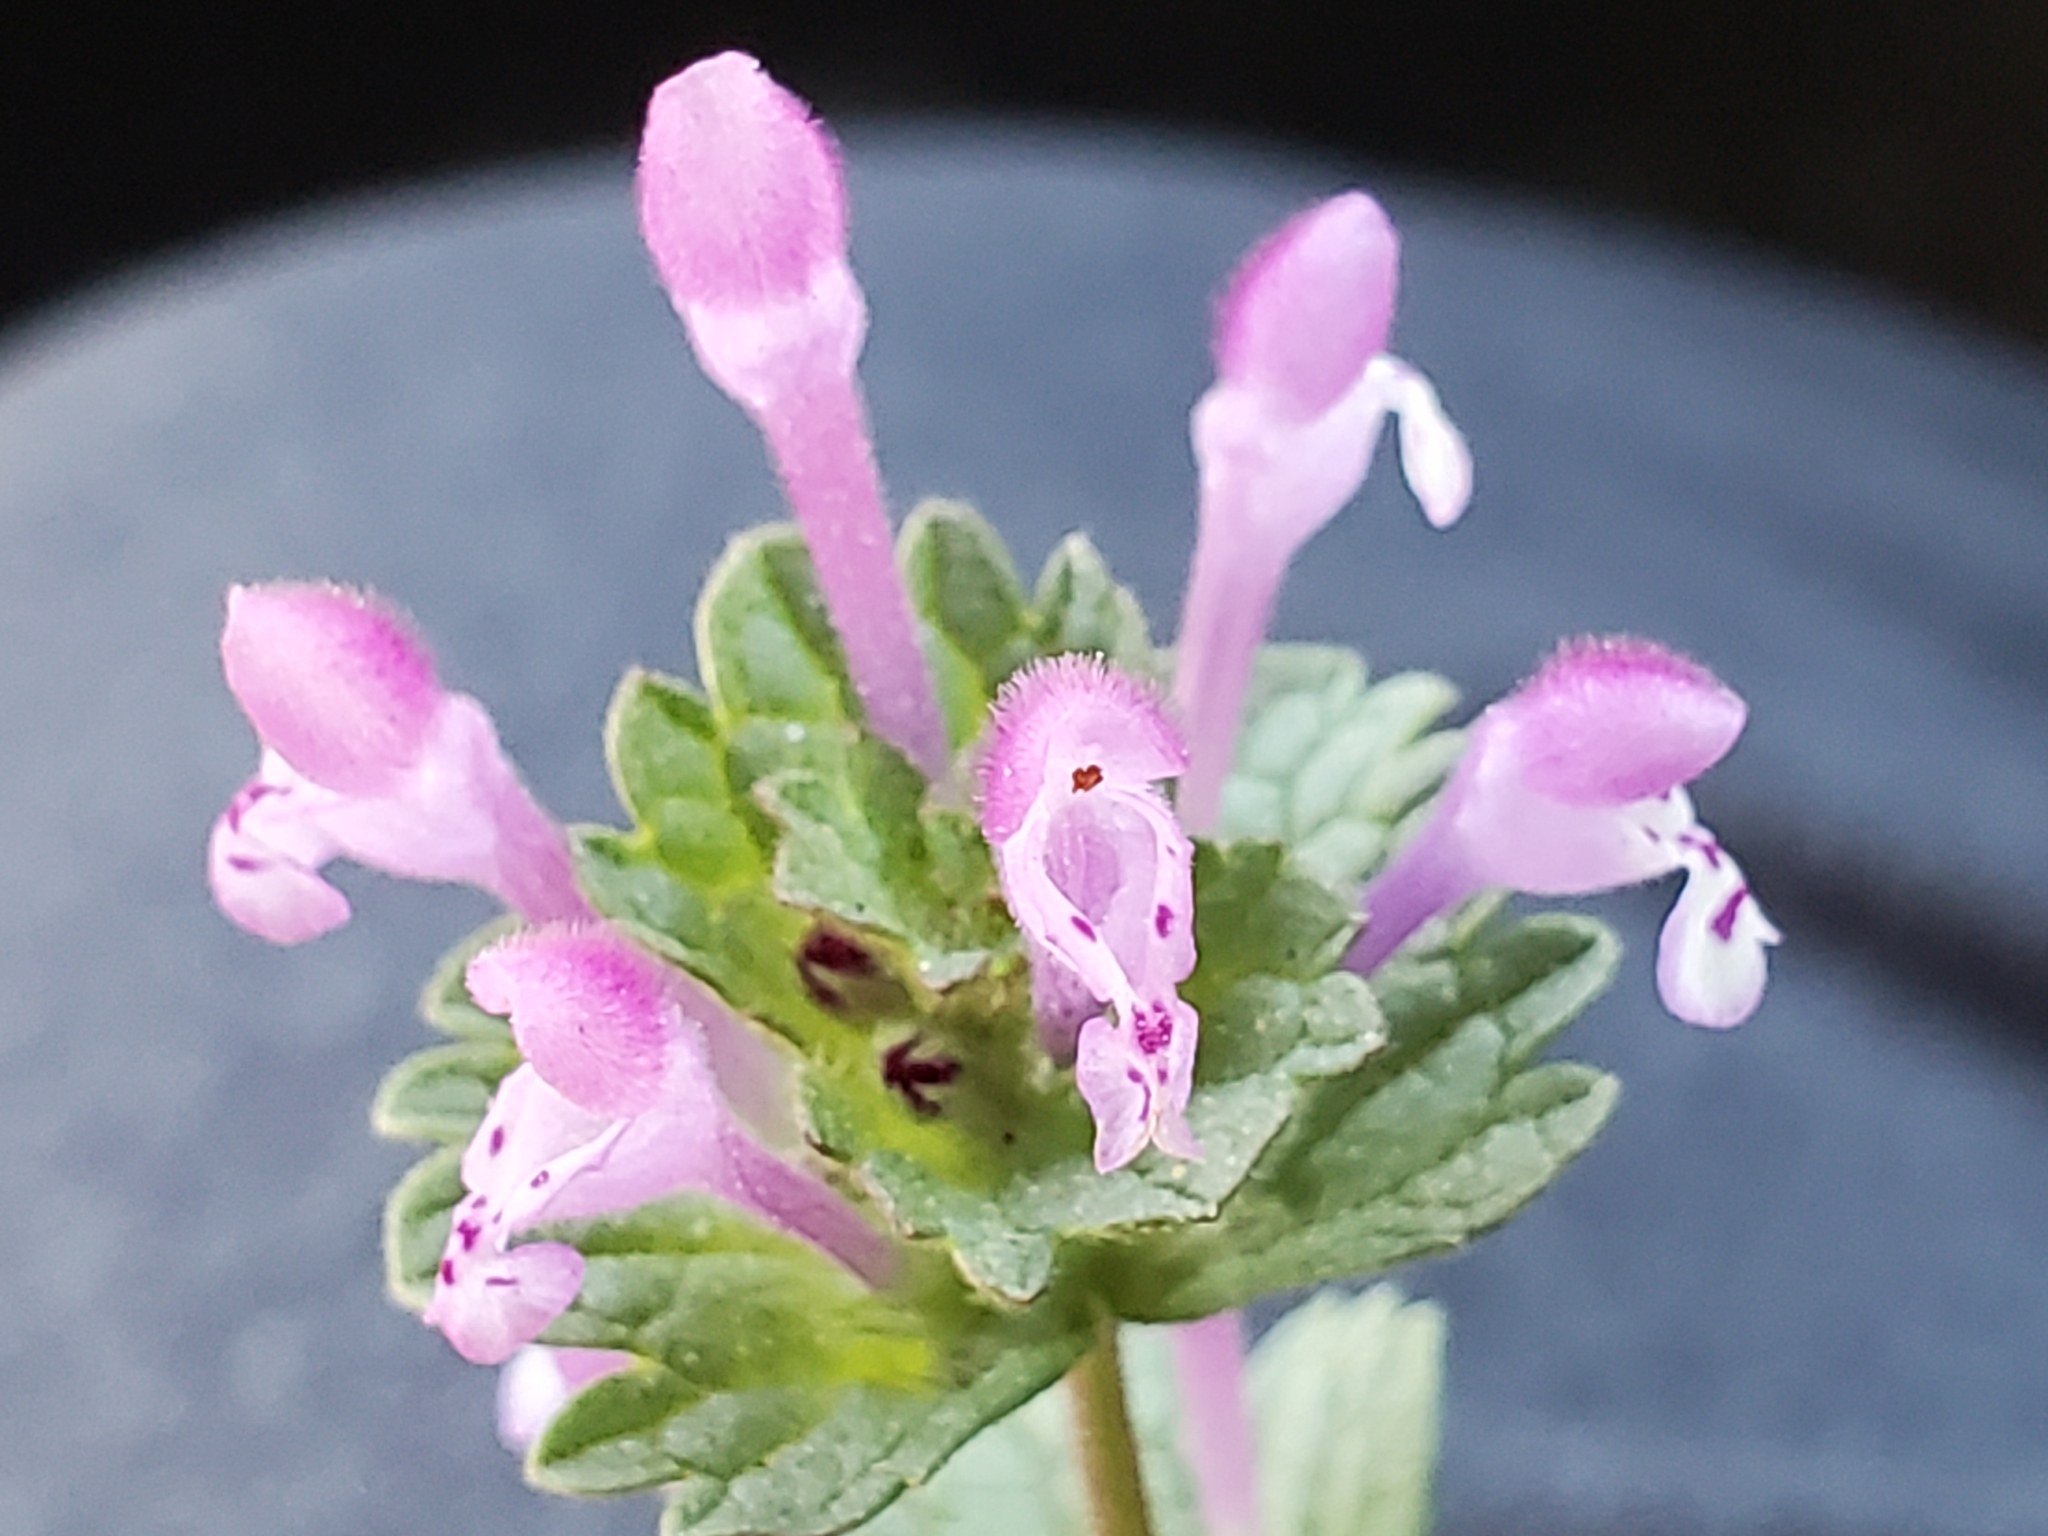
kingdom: Plantae
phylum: Tracheophyta
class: Magnoliopsida
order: Lamiales
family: Lamiaceae
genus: Lamium
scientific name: Lamium amplexicaule
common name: Henbit dead-nettle
